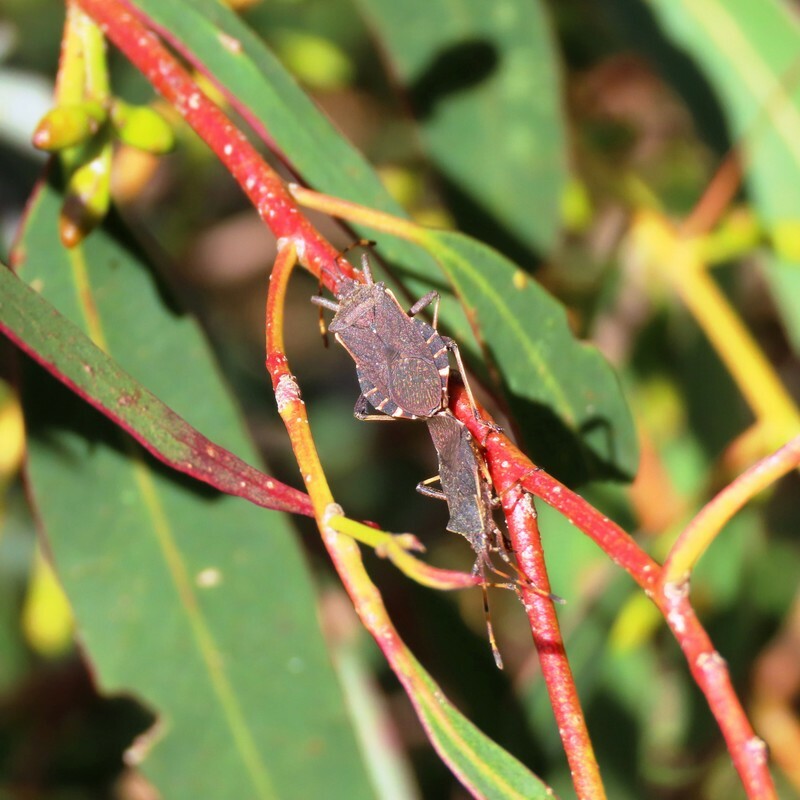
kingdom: Animalia
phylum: Arthropoda
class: Insecta
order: Hemiptera
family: Coreidae
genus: Gelonus
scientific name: Gelonus tasmanicus
